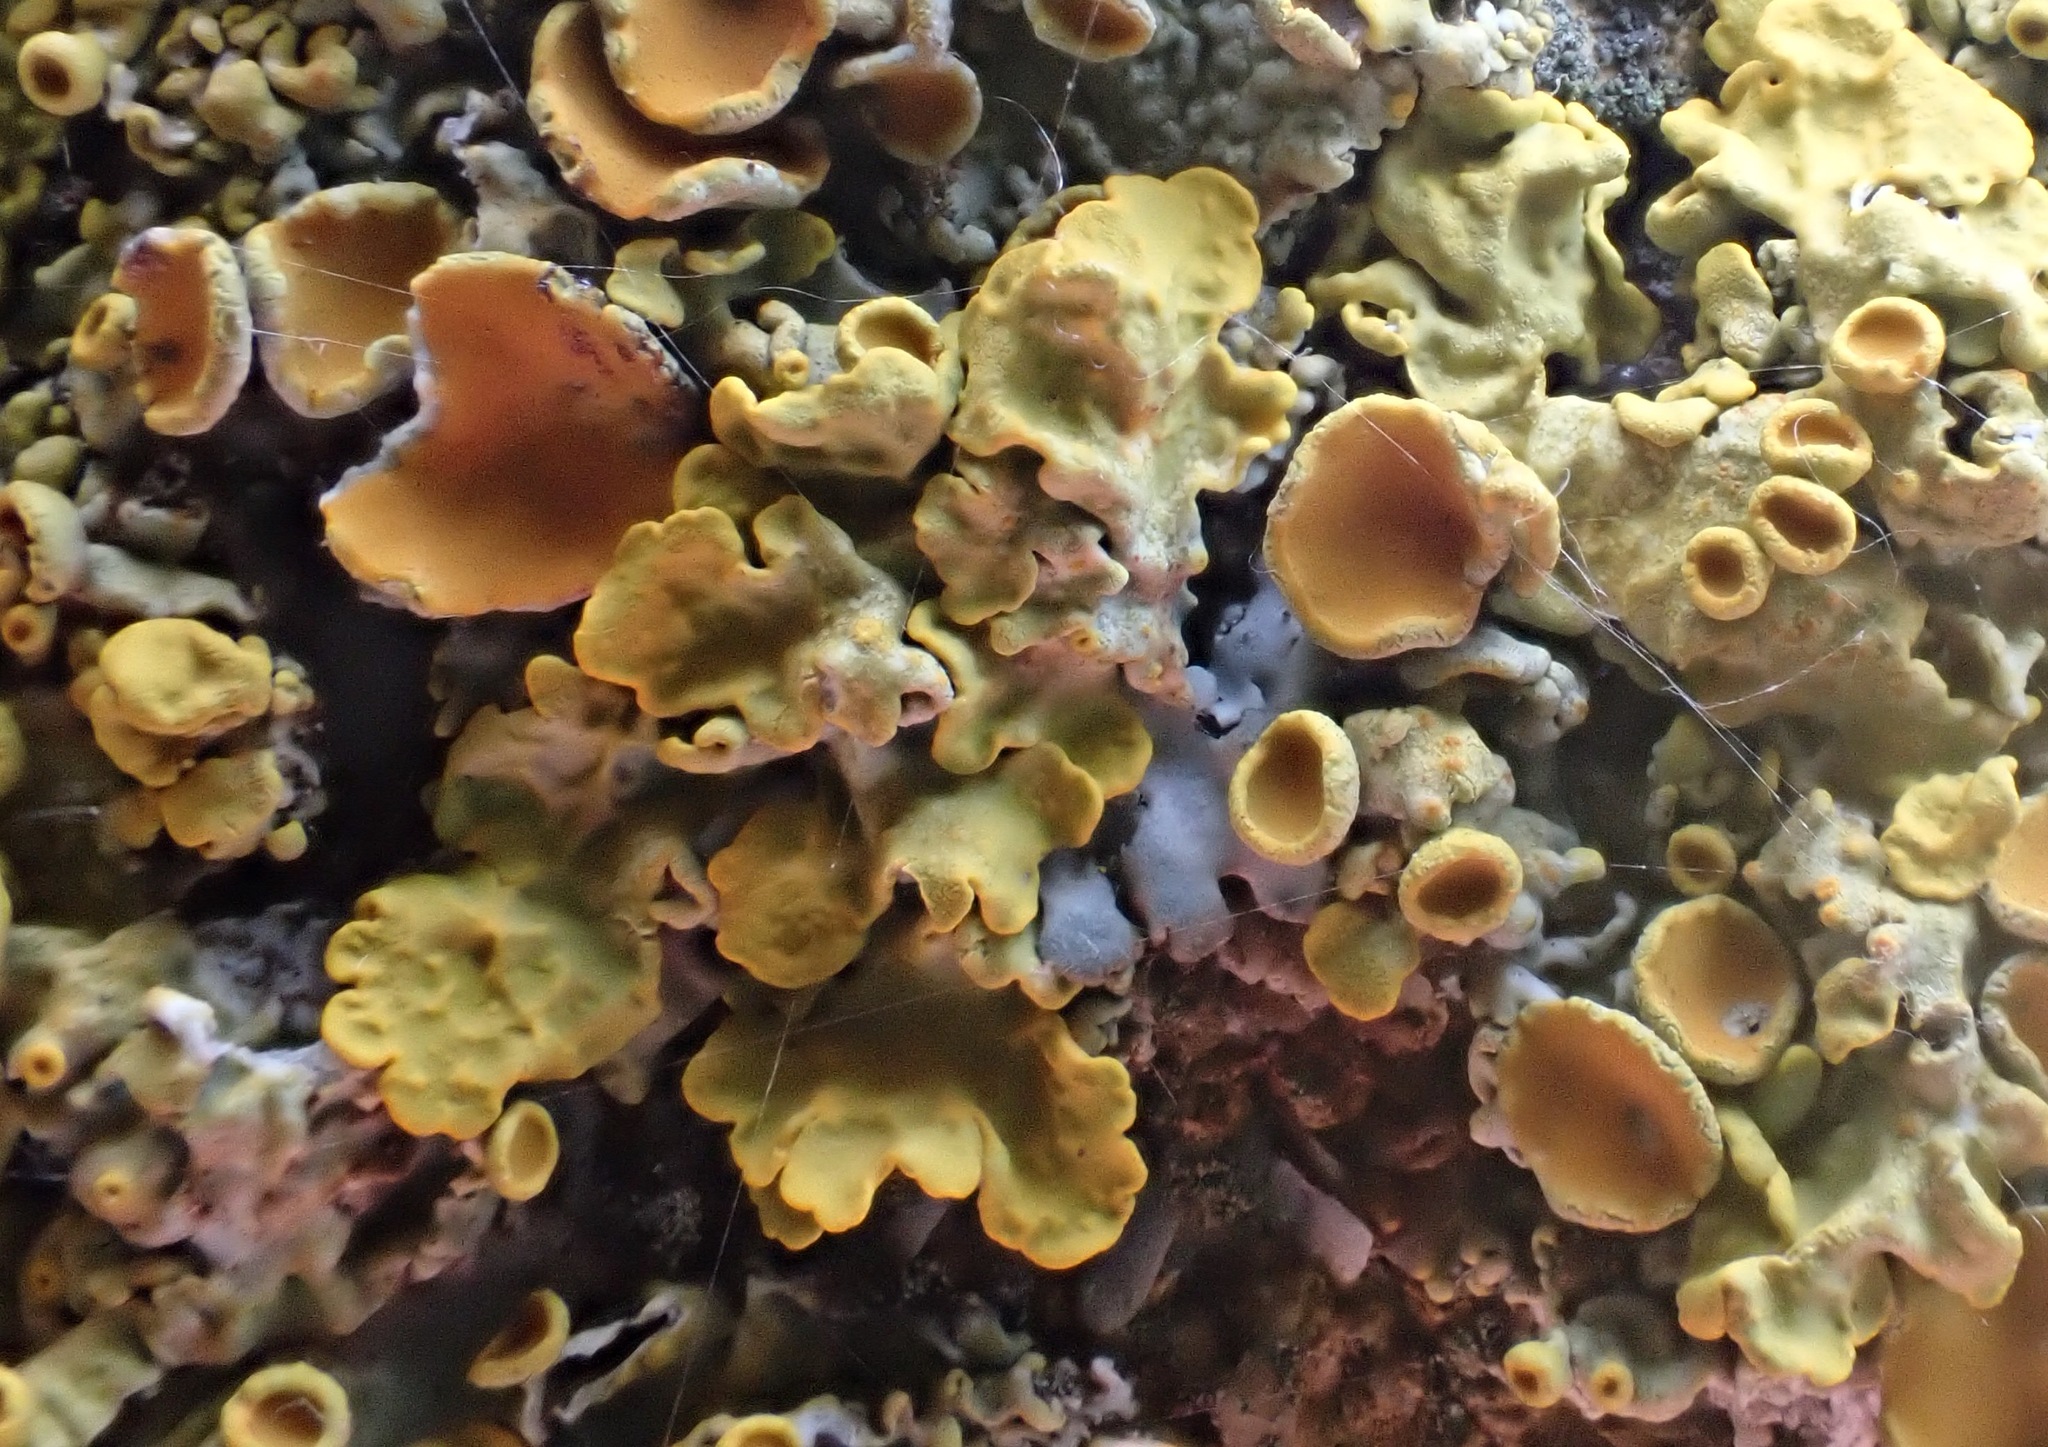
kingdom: Fungi
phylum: Ascomycota
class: Lecanoromycetes
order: Teloschistales
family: Teloschistaceae
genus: Xanthoria
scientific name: Xanthoria parietina
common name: Common orange lichen
